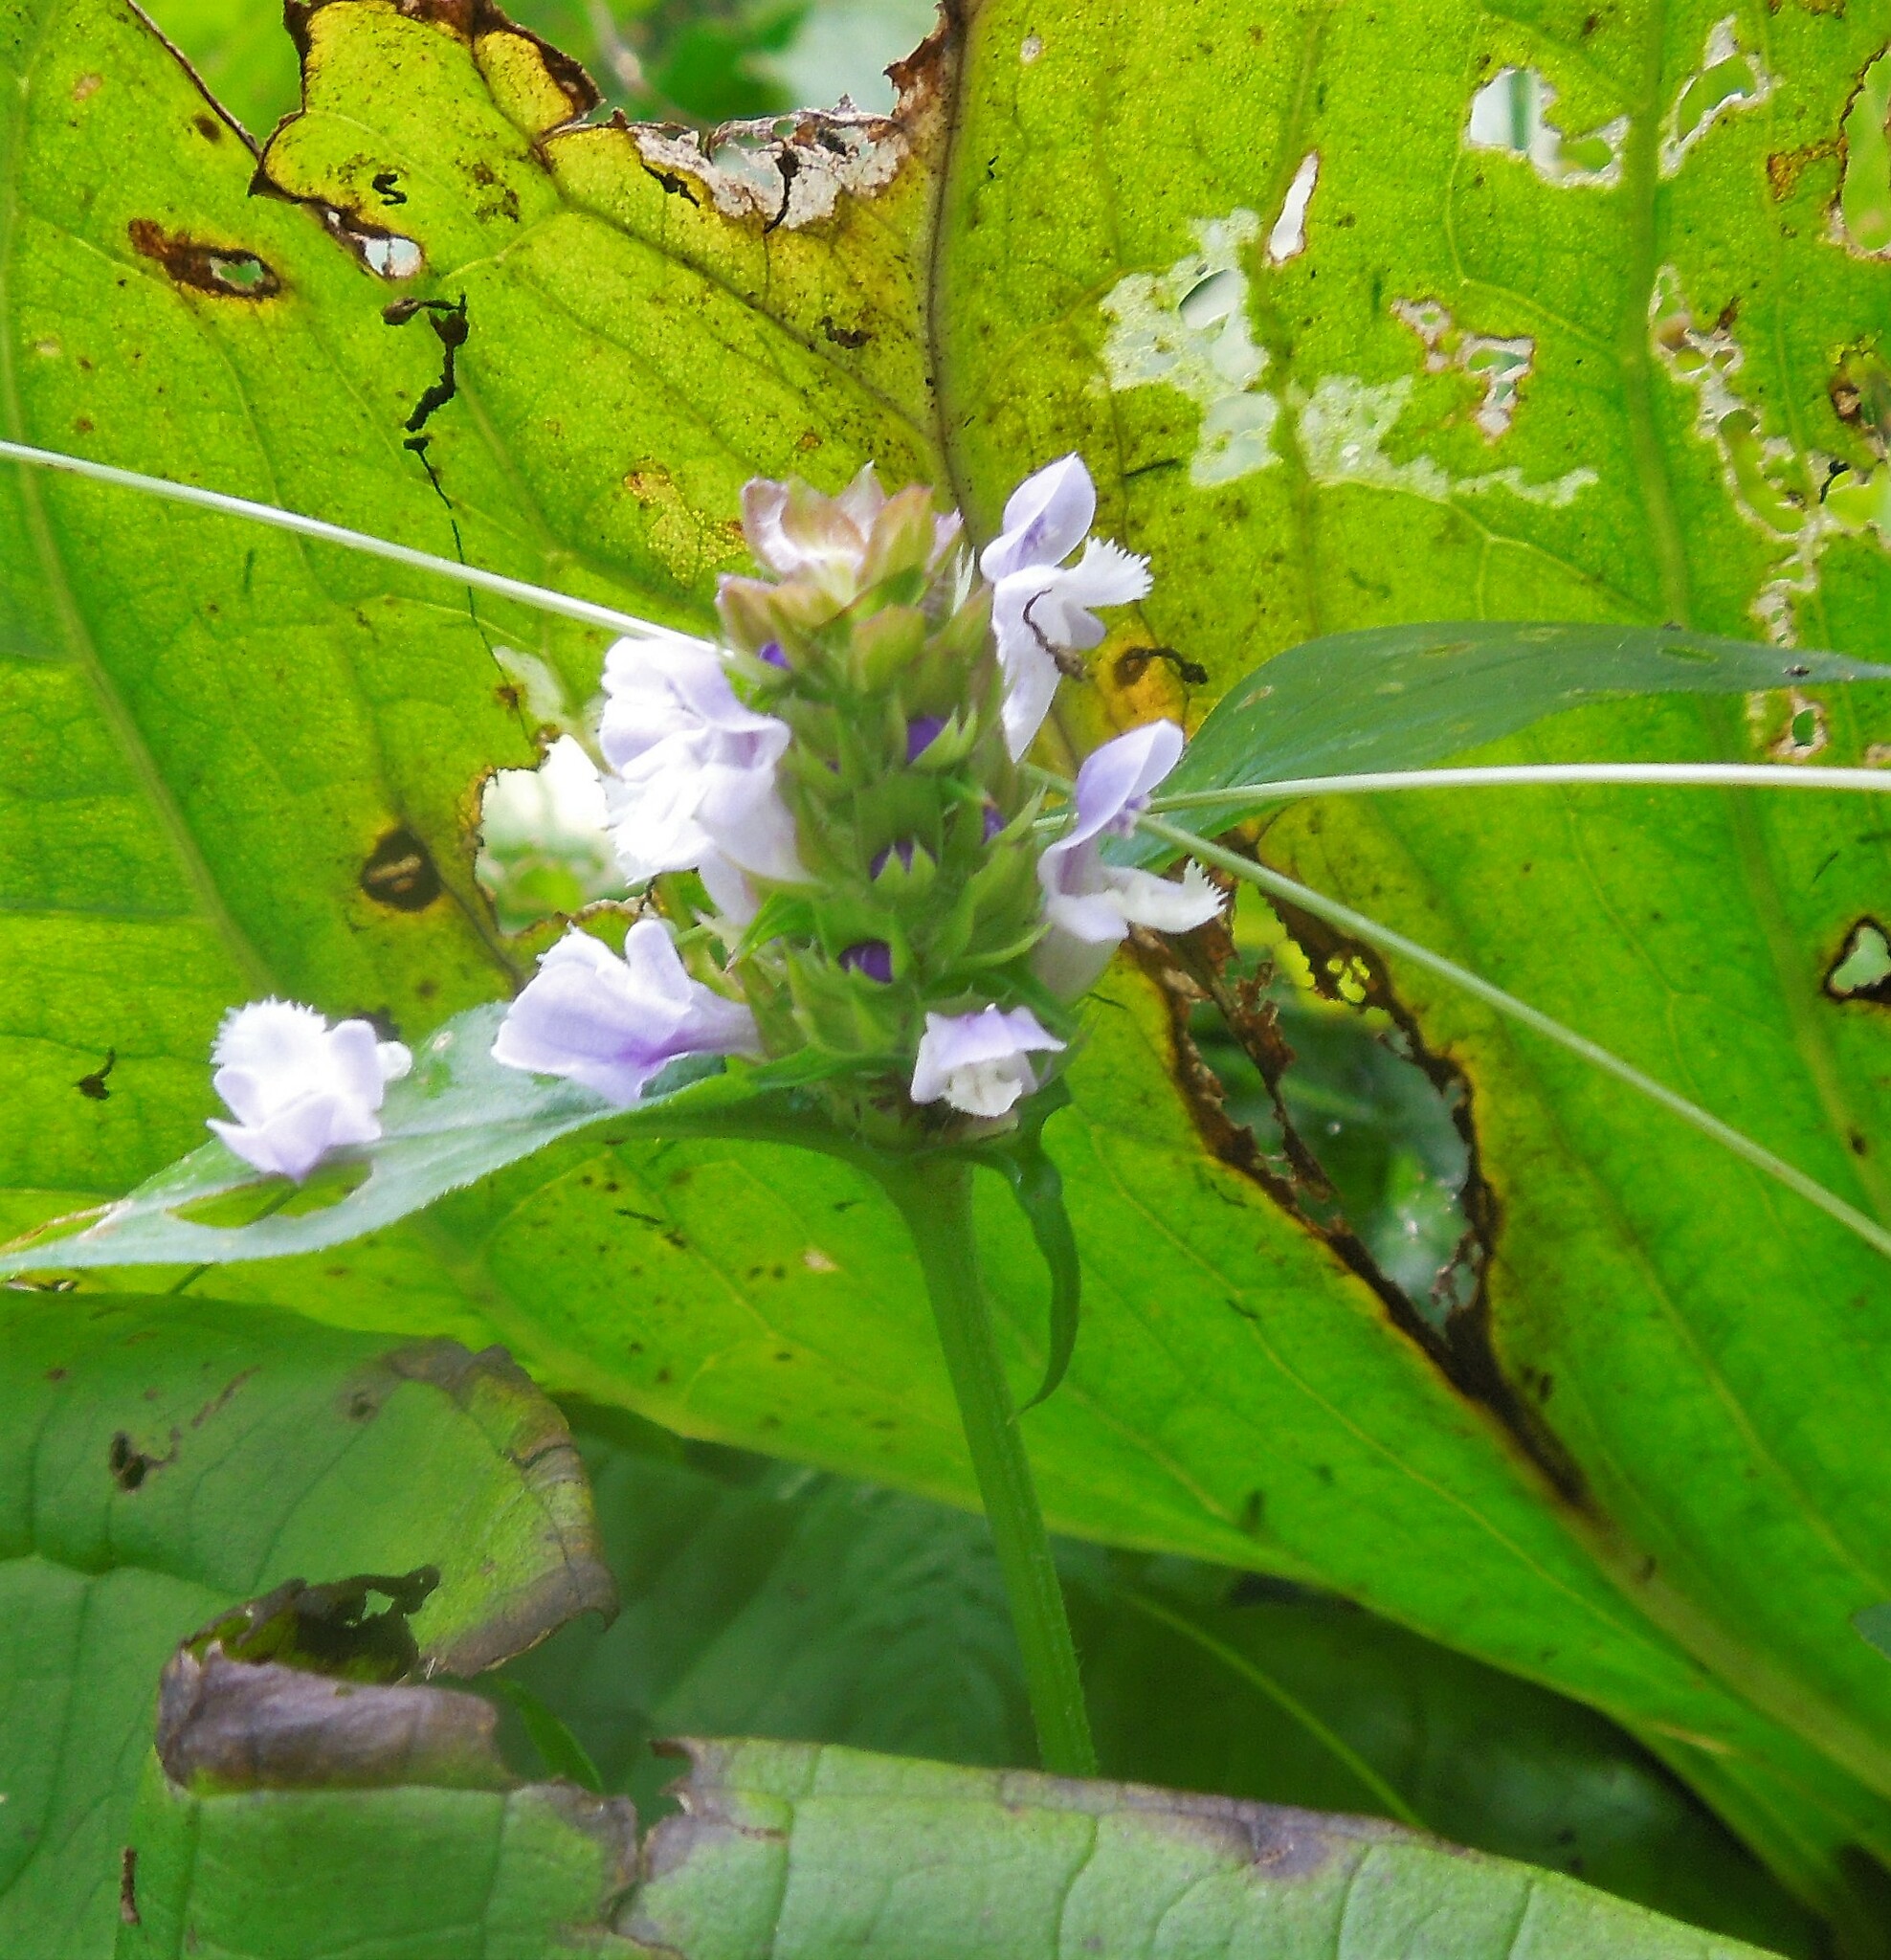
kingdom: Plantae
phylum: Tracheophyta
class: Magnoliopsida
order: Lamiales
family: Lamiaceae
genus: Prunella
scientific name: Prunella vulgaris
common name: Heal-all
